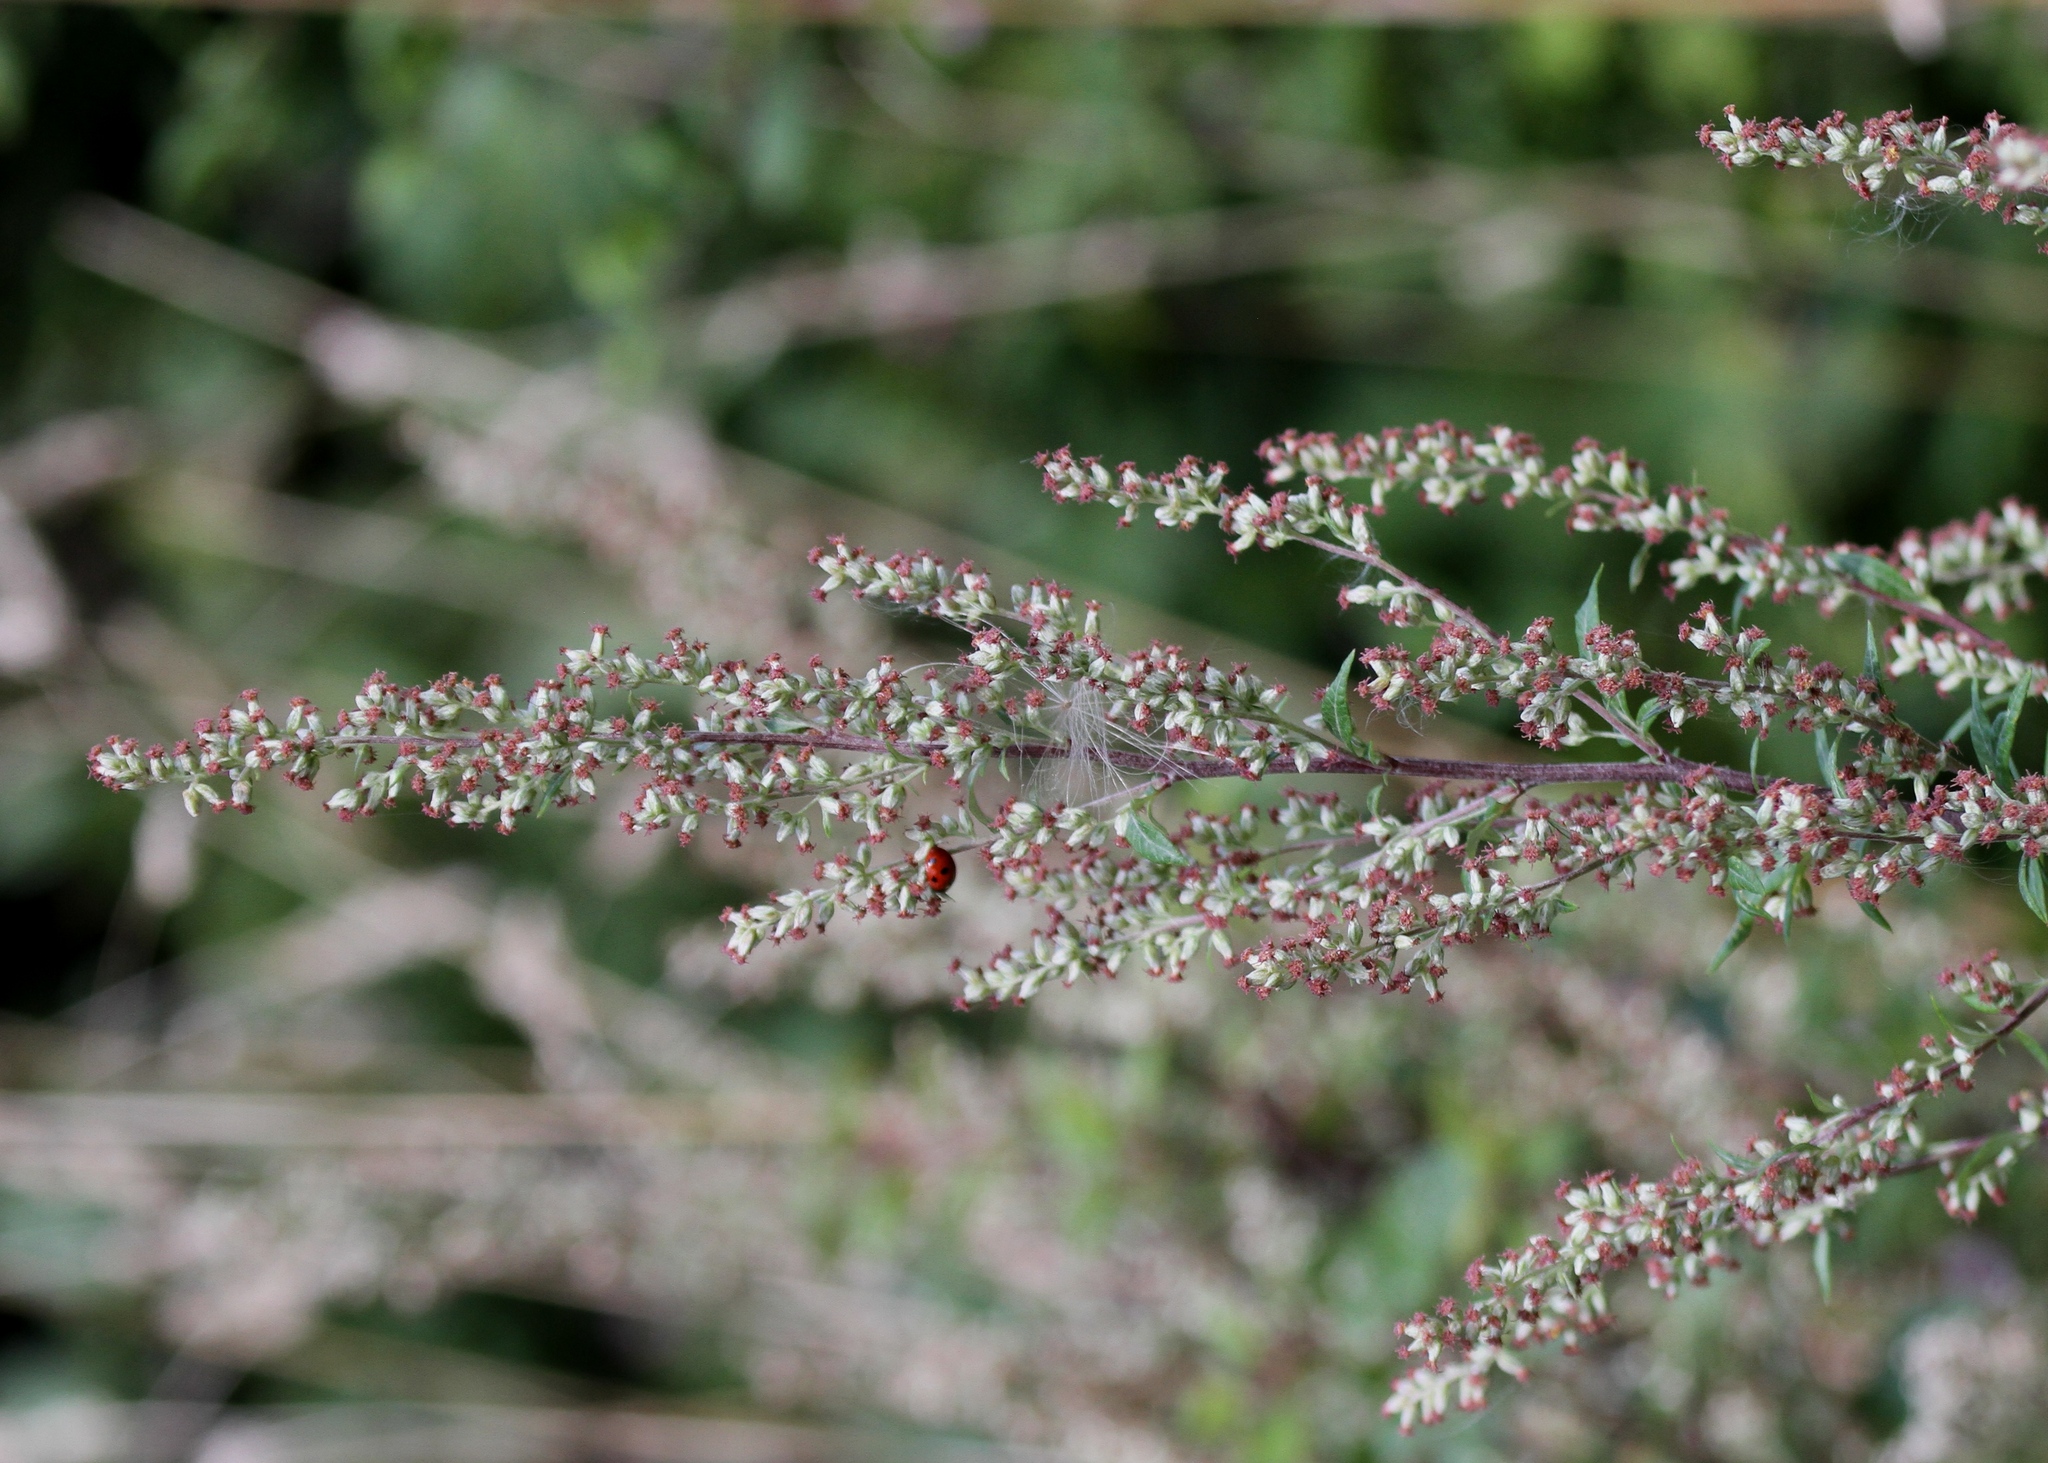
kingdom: Plantae
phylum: Tracheophyta
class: Magnoliopsida
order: Asterales
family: Asteraceae
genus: Artemisia
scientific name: Artemisia vulgaris
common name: Mugwort
